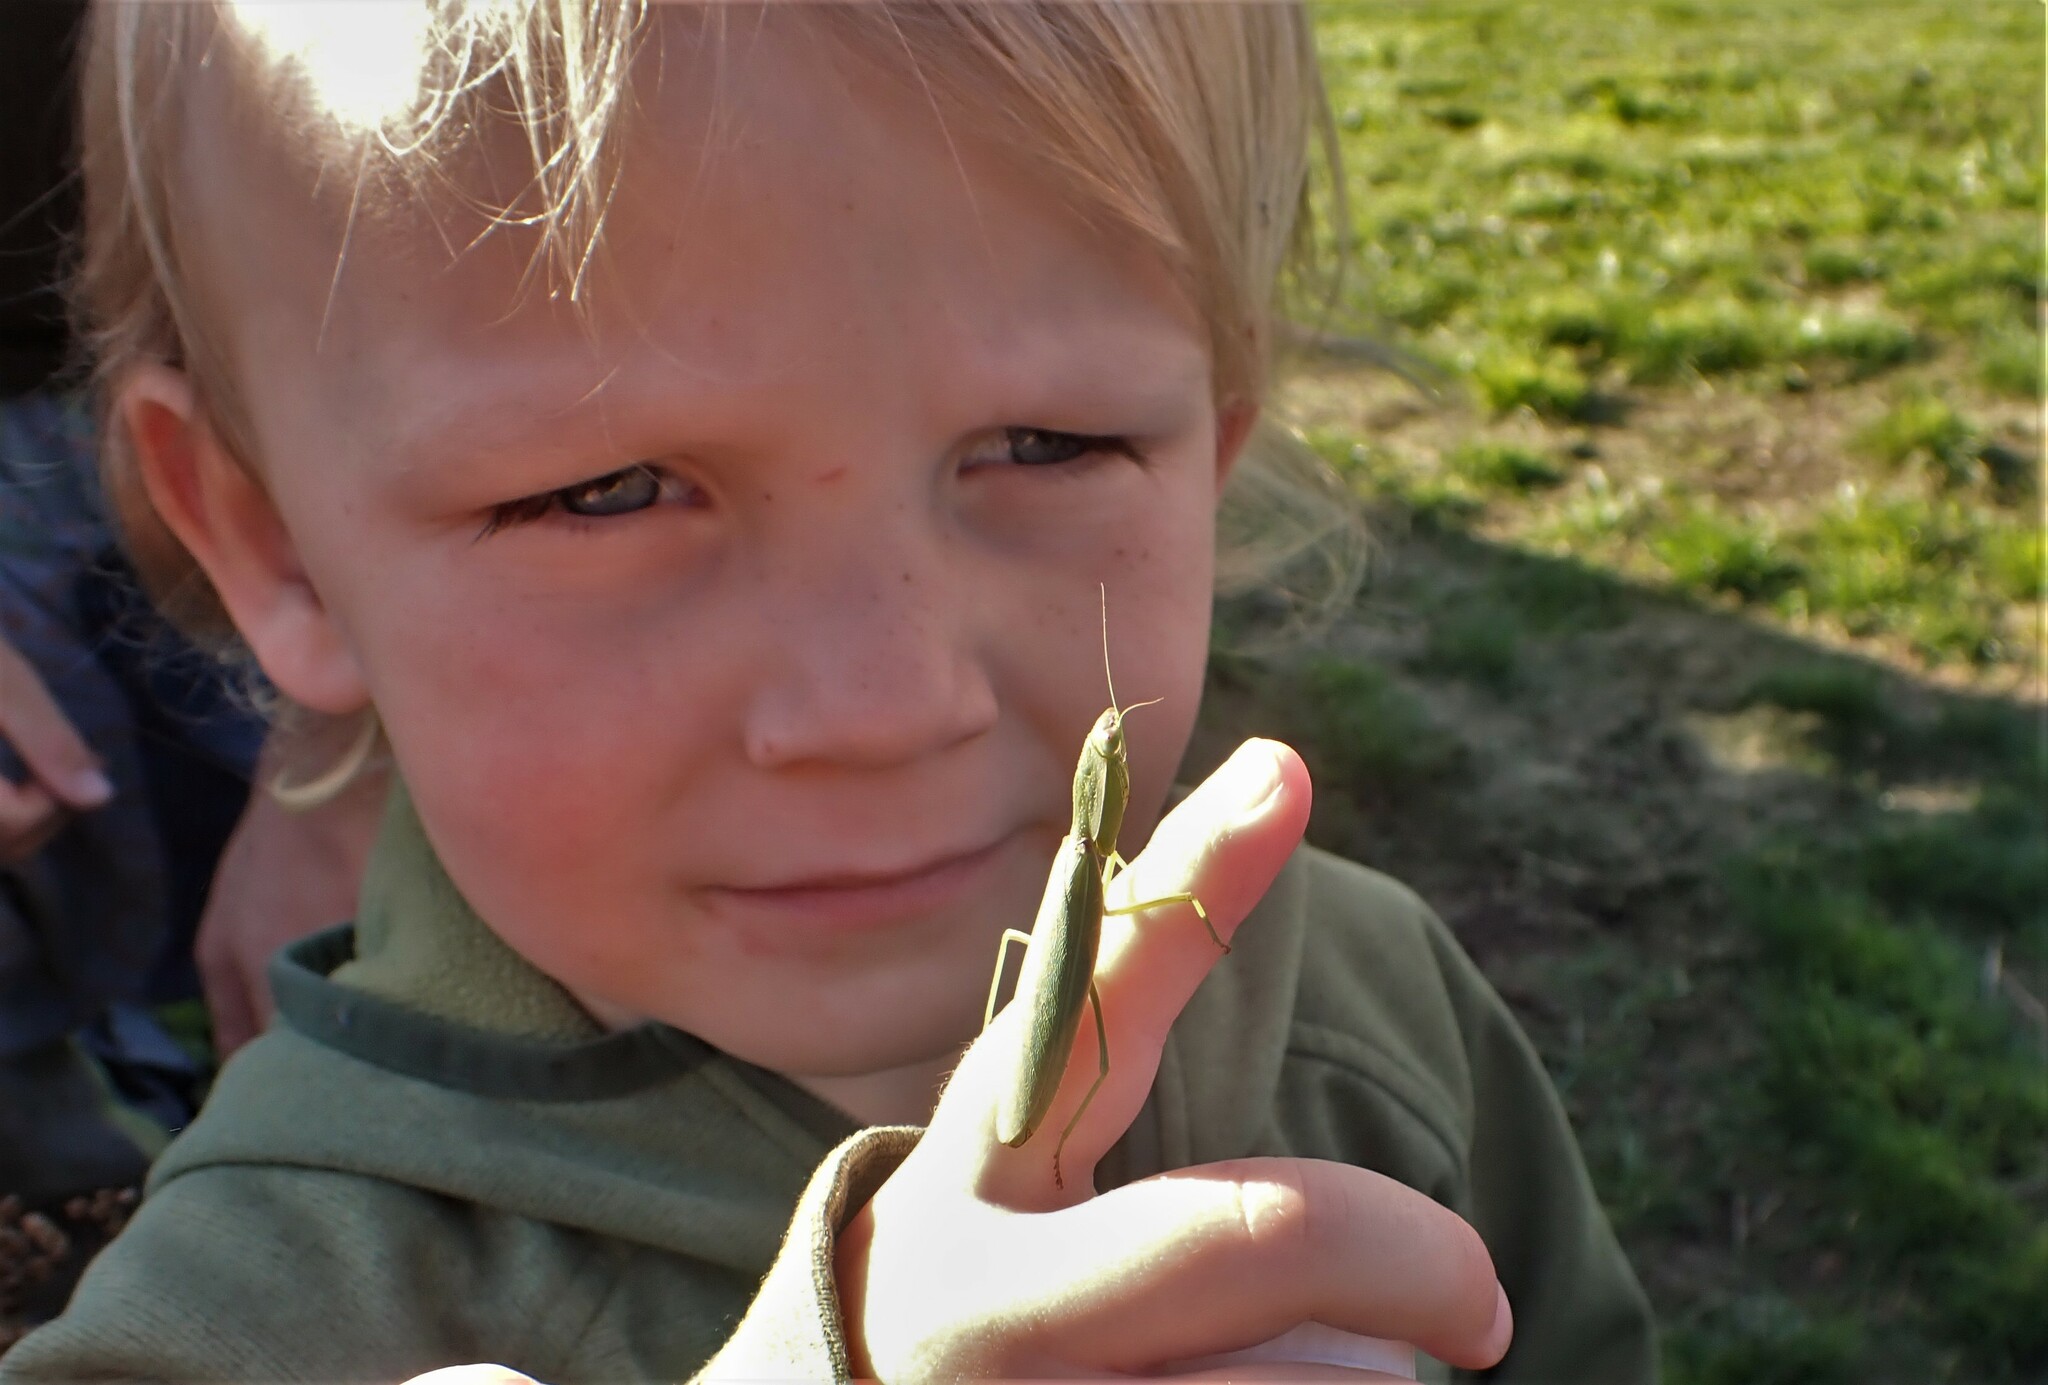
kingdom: Animalia
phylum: Arthropoda
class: Insecta
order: Mantodea
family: Mantidae
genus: Orthodera
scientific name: Orthodera novaezealandiae
